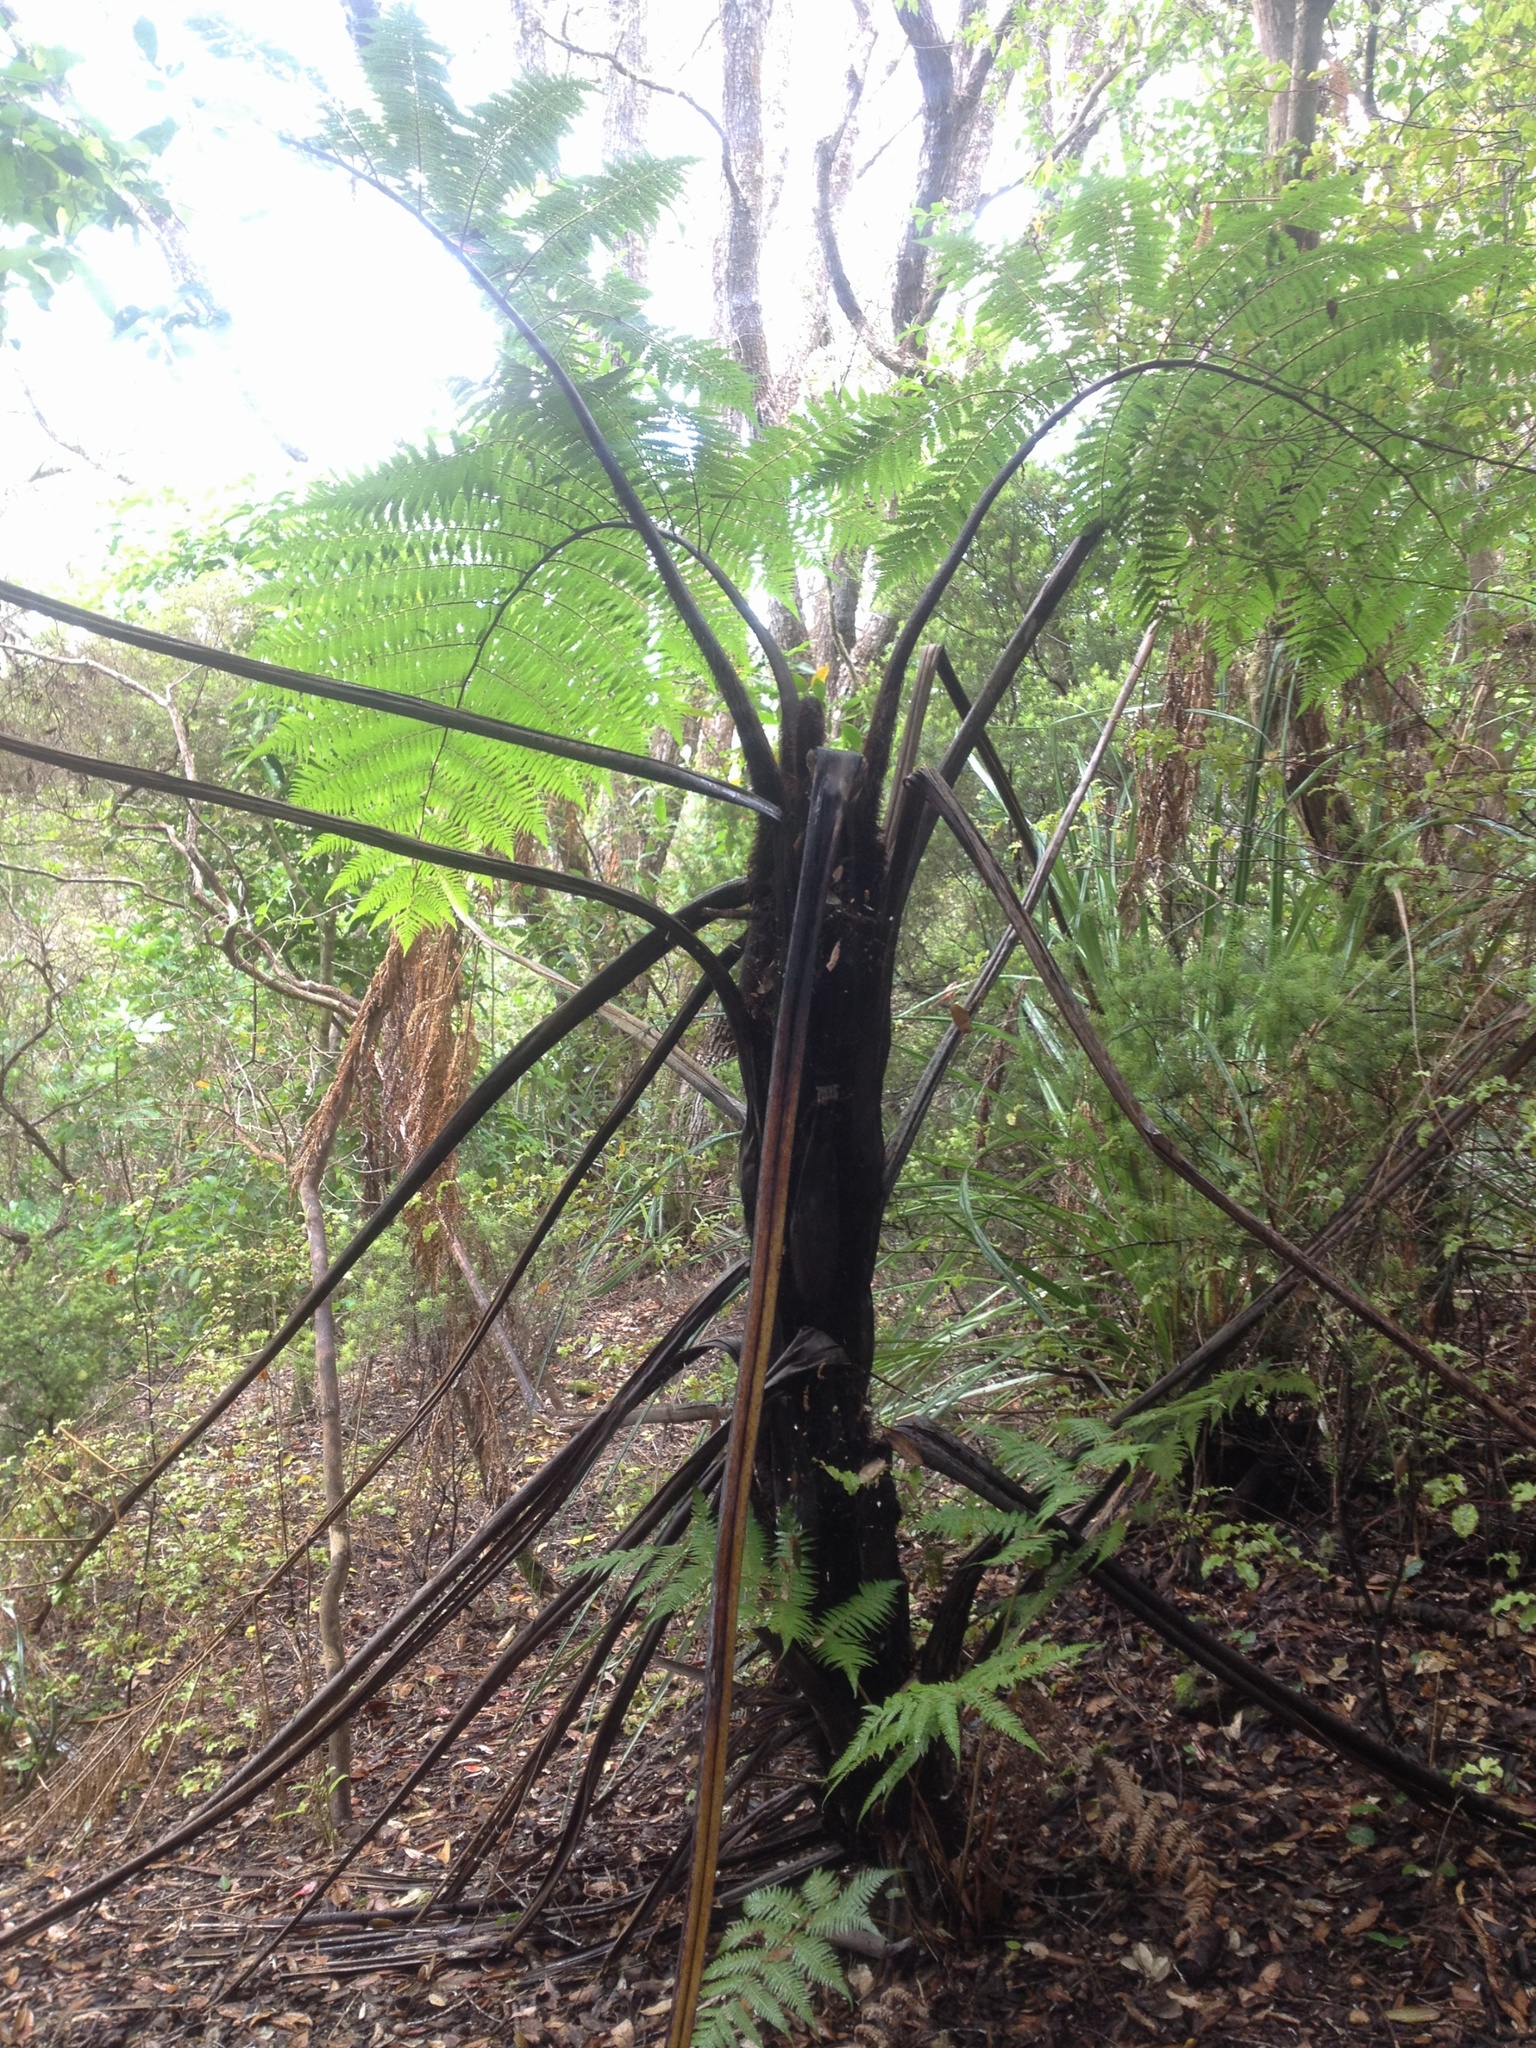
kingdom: Plantae
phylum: Tracheophyta
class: Polypodiopsida
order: Cyatheales
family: Cyatheaceae
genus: Sphaeropteris
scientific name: Sphaeropteris medullaris
